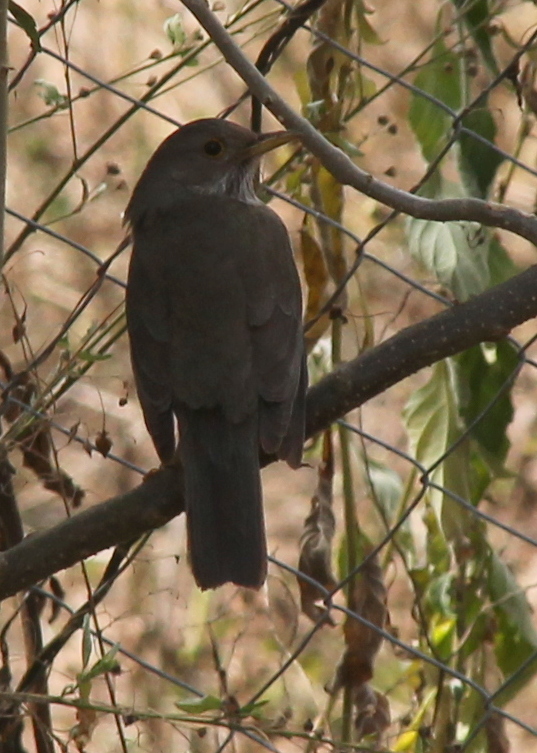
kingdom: Animalia
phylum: Chordata
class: Aves
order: Passeriformes
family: Turdidae
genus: Turdus
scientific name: Turdus rufiventris
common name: Rufous-bellied thrush
